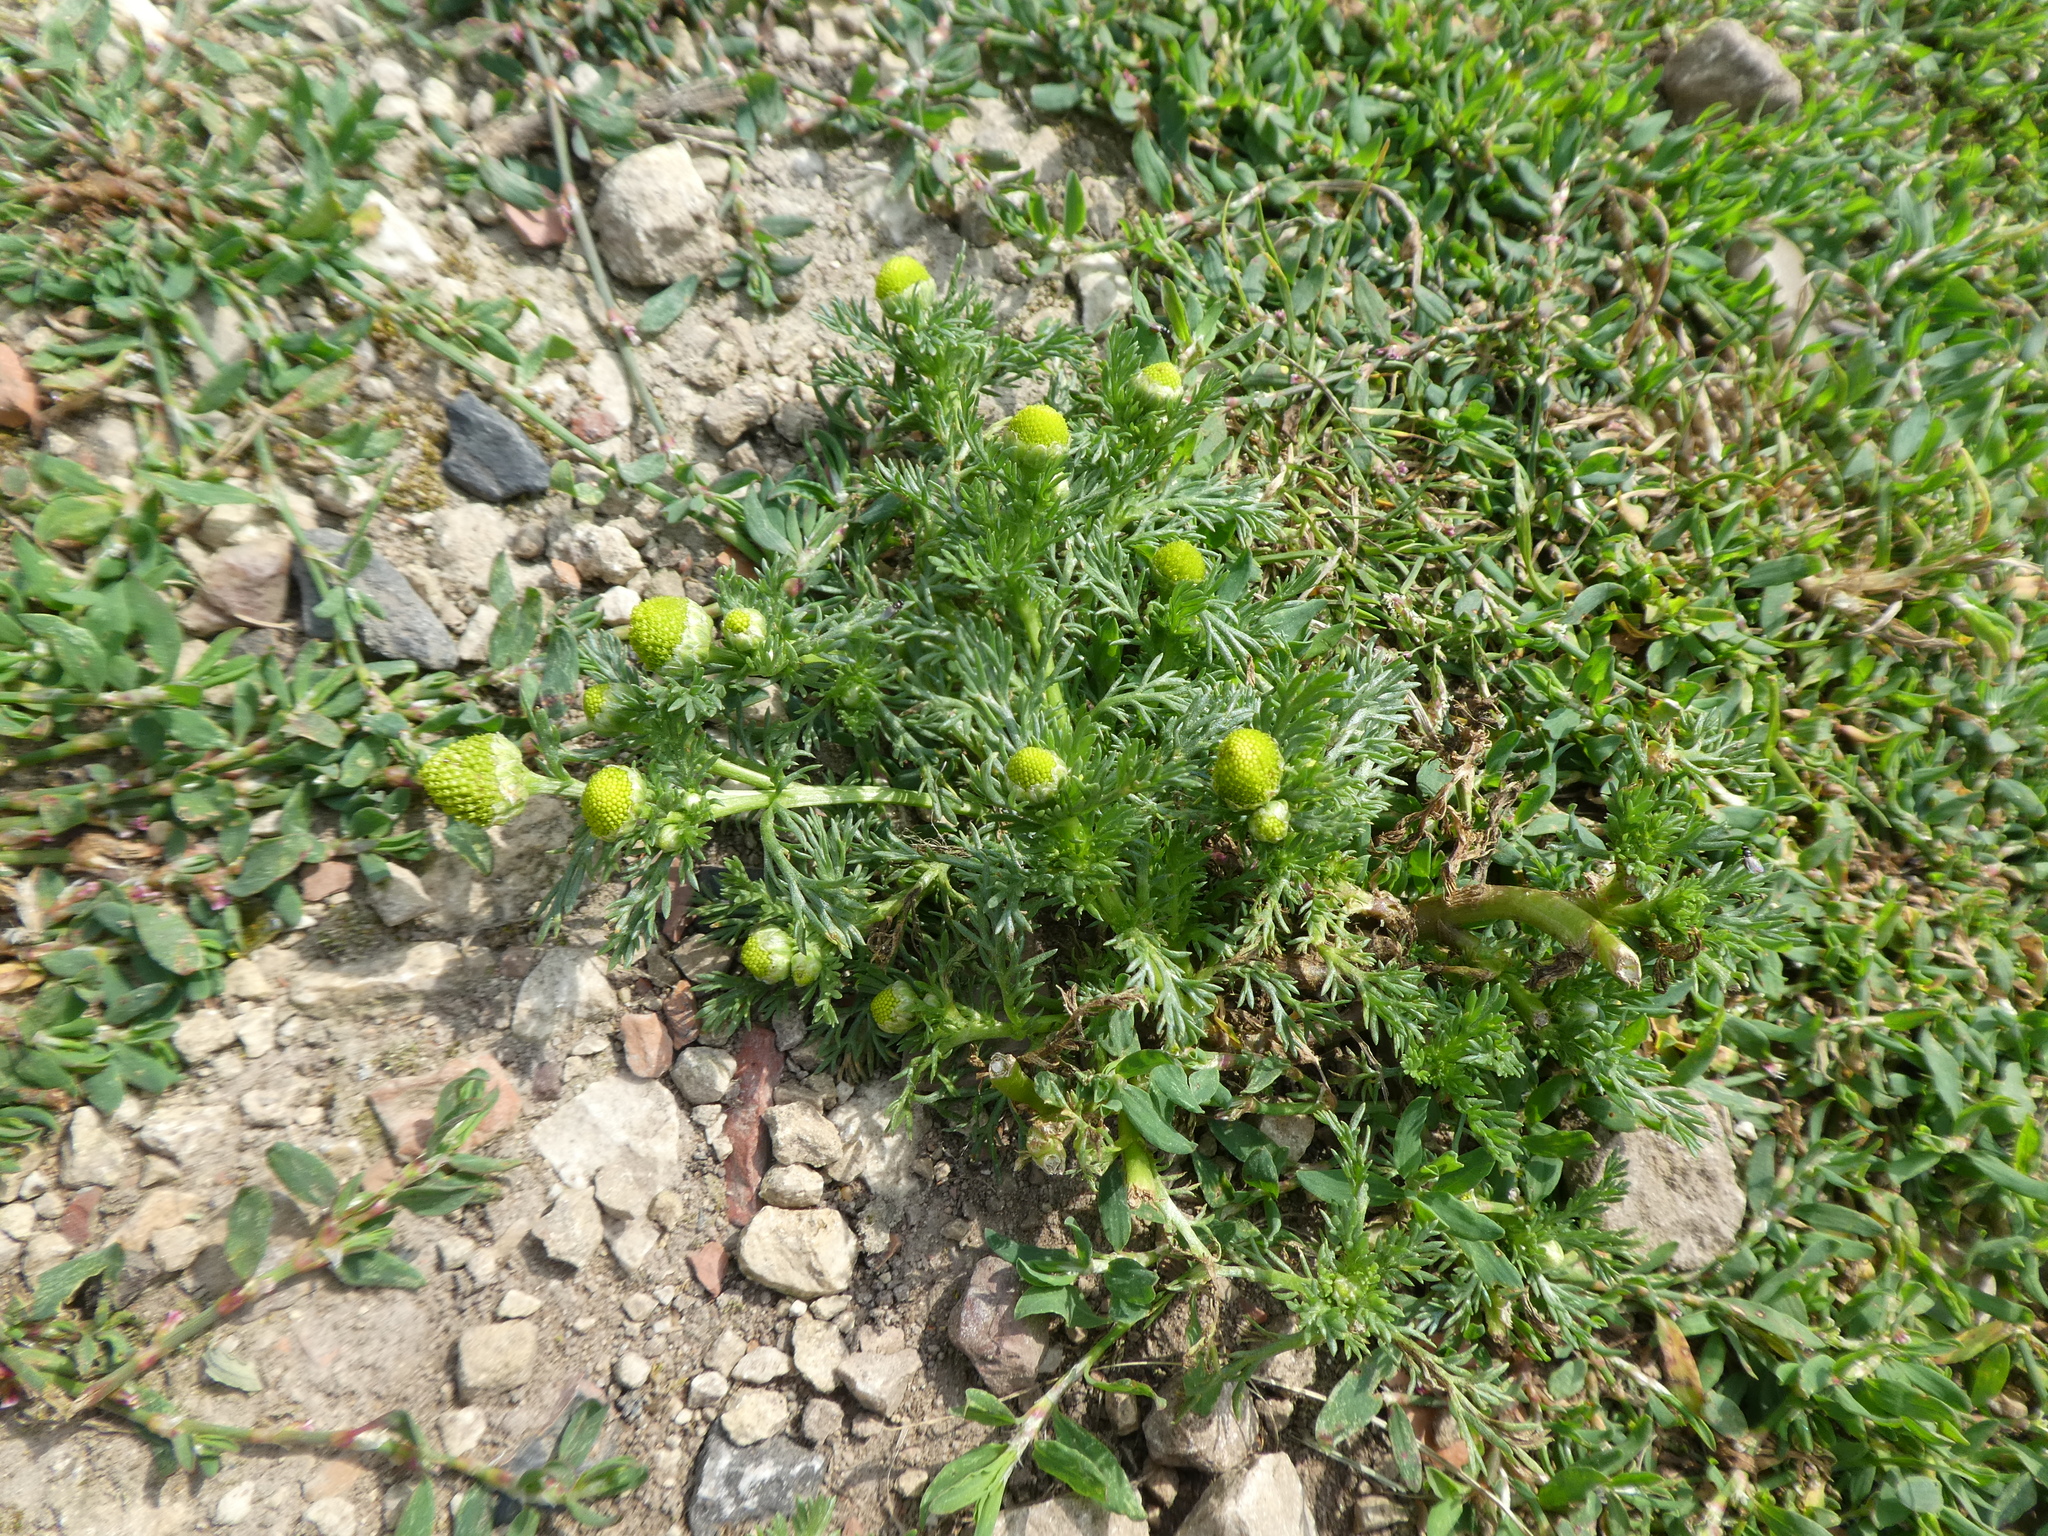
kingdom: Plantae
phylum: Tracheophyta
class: Magnoliopsida
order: Asterales
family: Asteraceae
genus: Matricaria
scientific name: Matricaria discoidea
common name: Disc mayweed
